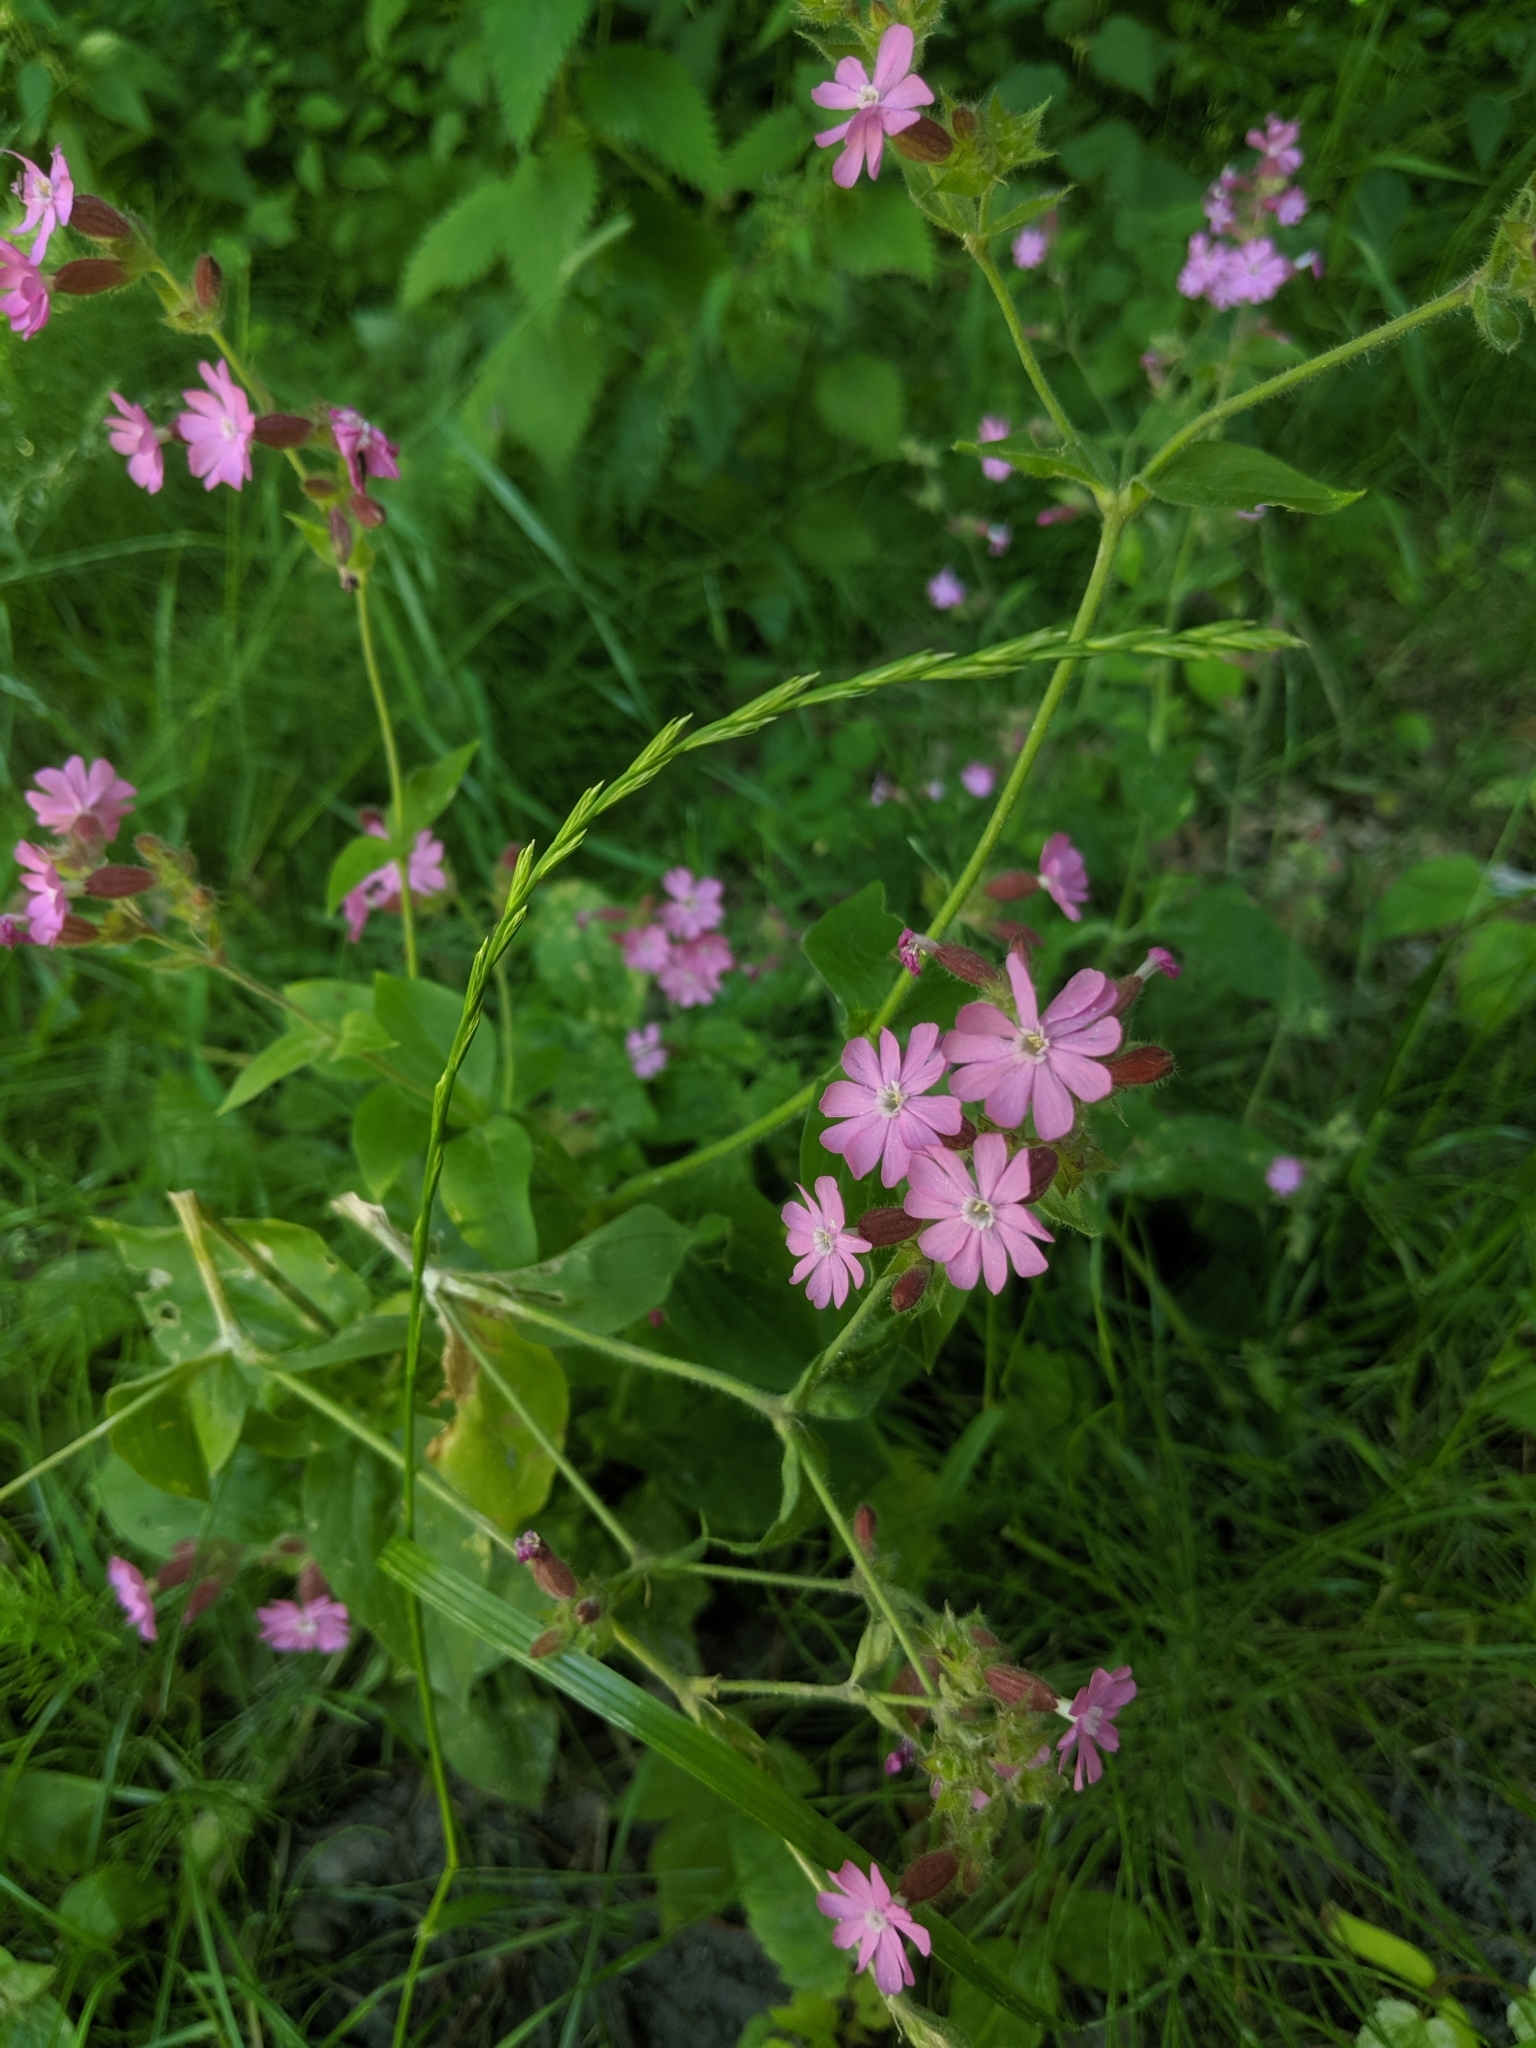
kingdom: Plantae
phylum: Tracheophyta
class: Magnoliopsida
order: Caryophyllales
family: Caryophyllaceae
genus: Silene
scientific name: Silene dioica
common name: Red campion
